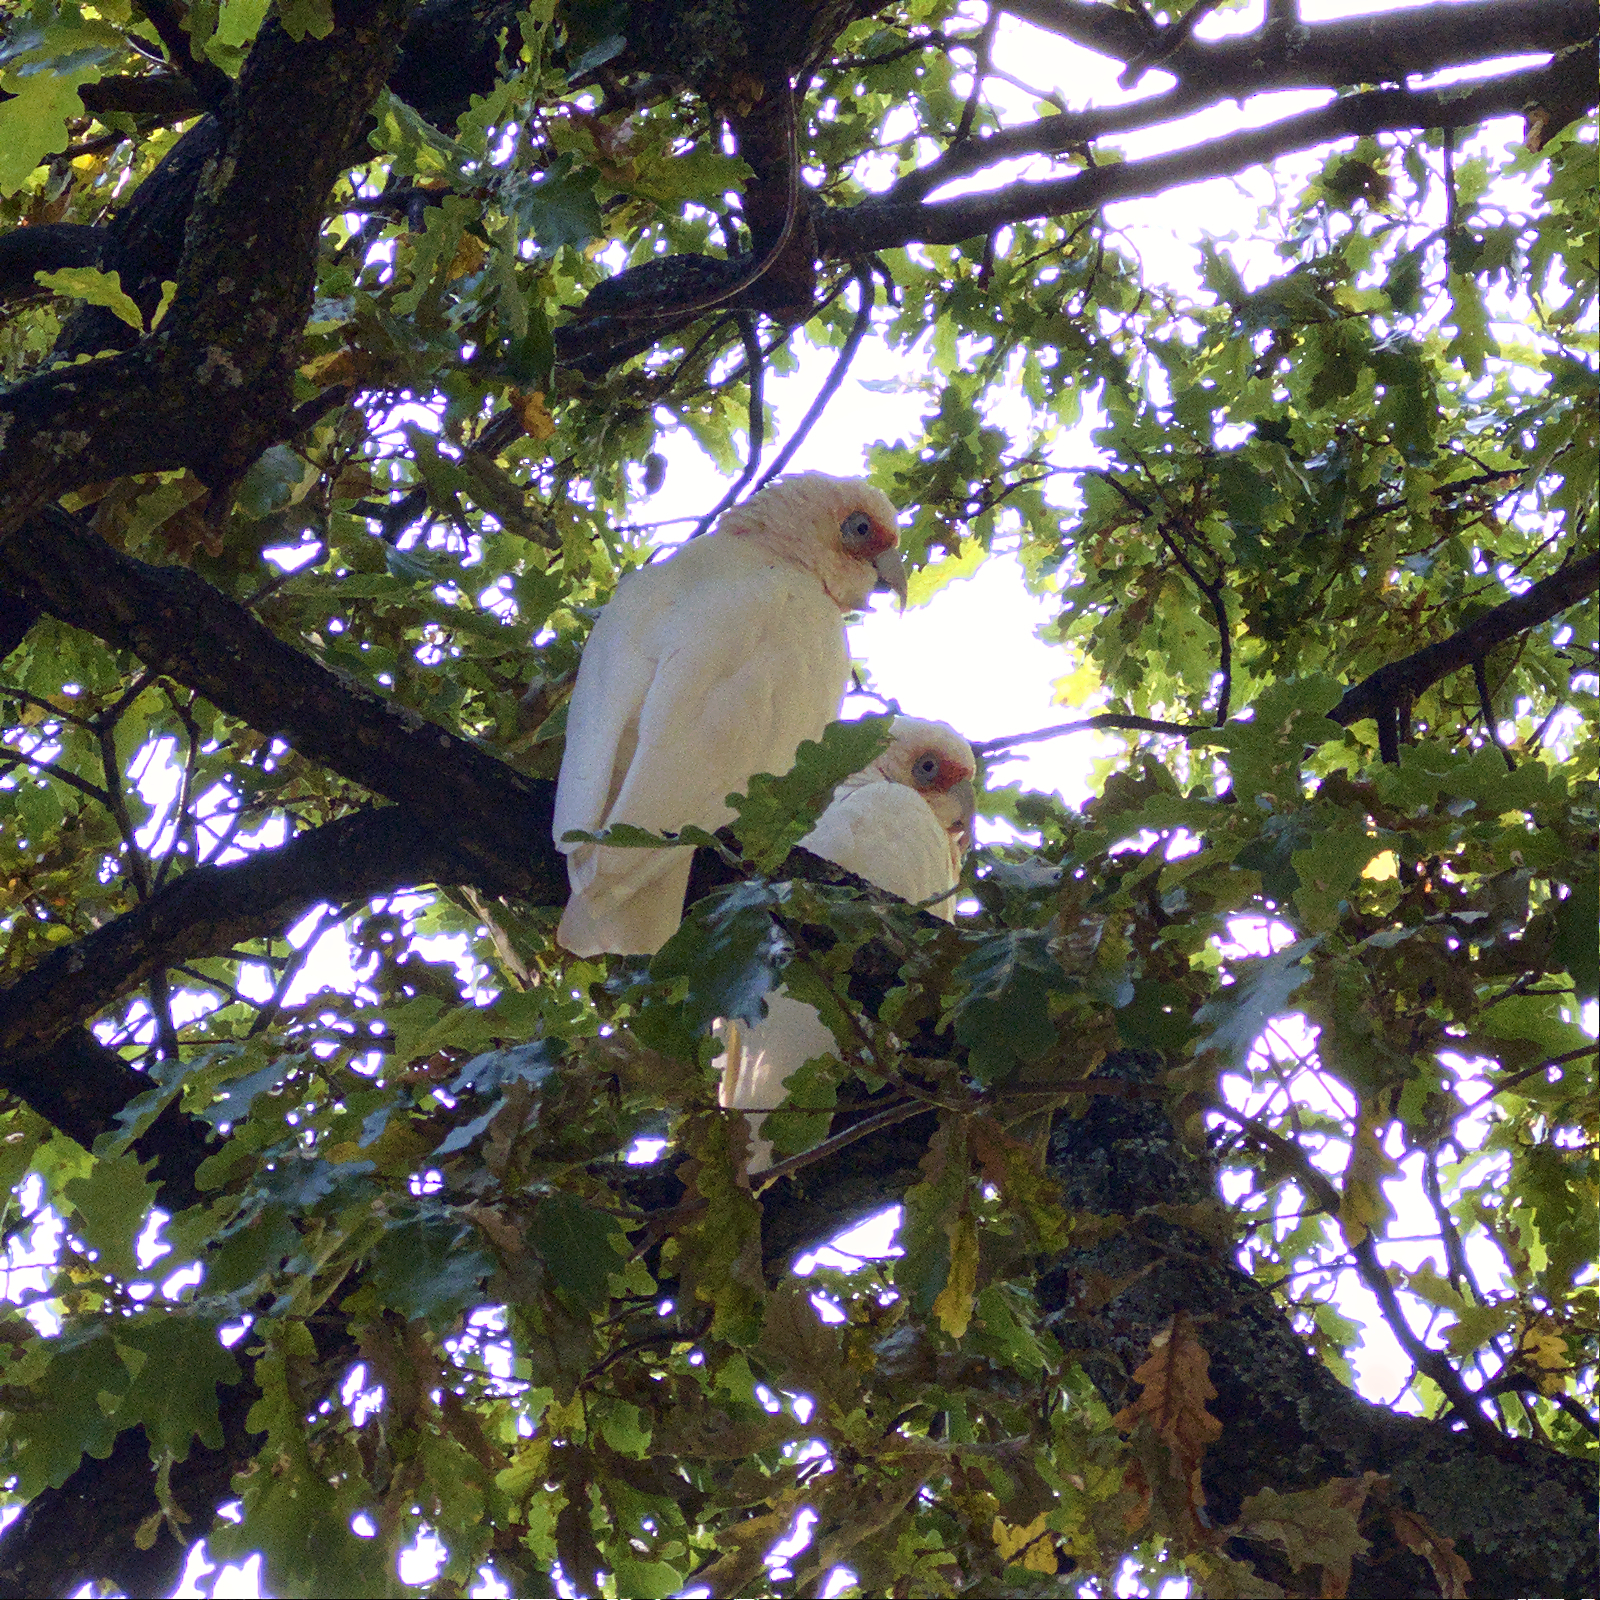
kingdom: Animalia
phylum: Chordata
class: Aves
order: Psittaciformes
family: Psittacidae
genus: Cacatua
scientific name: Cacatua tenuirostris
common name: Long-billed corella
